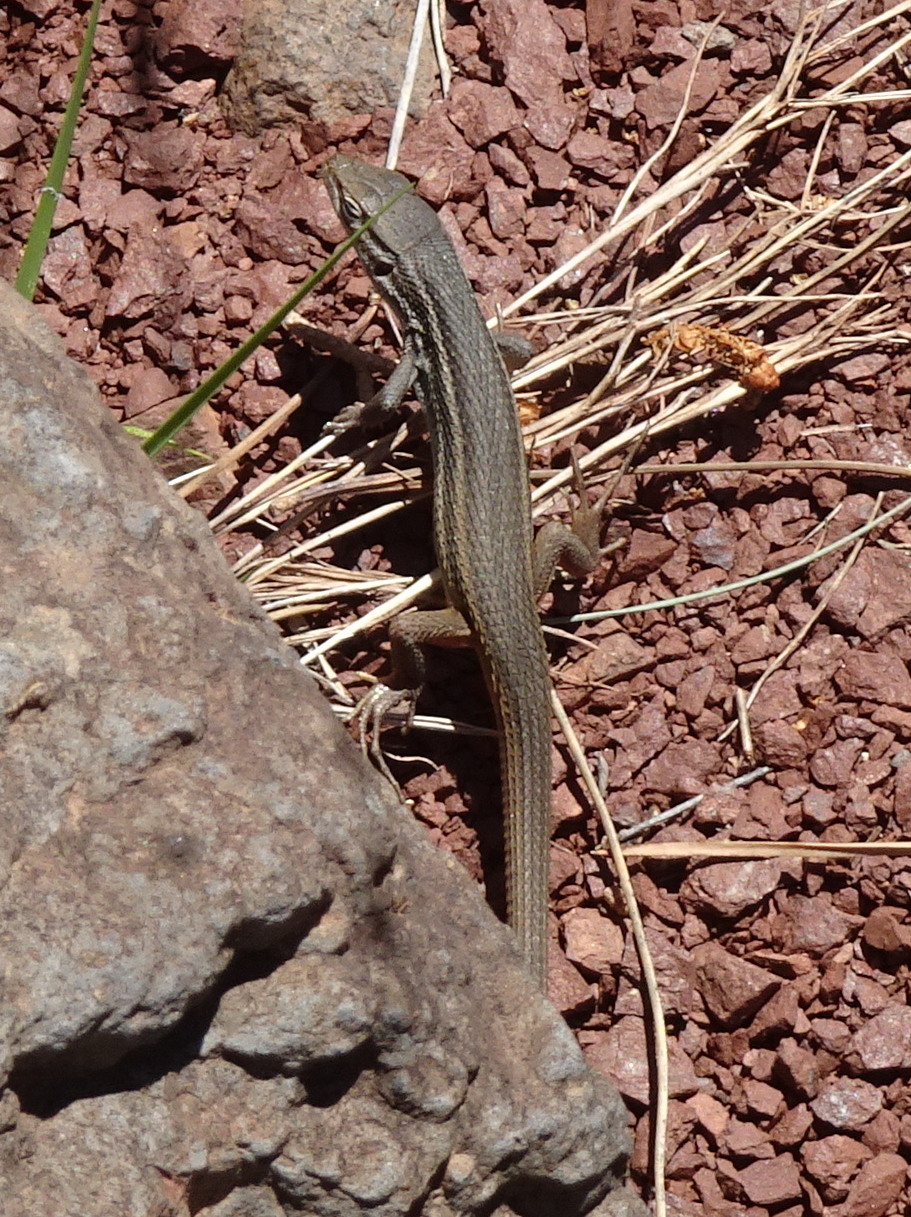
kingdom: Animalia
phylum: Chordata
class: Squamata
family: Lacertidae
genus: Psammodromus
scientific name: Psammodromus algirus
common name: Algerian psammodromus
